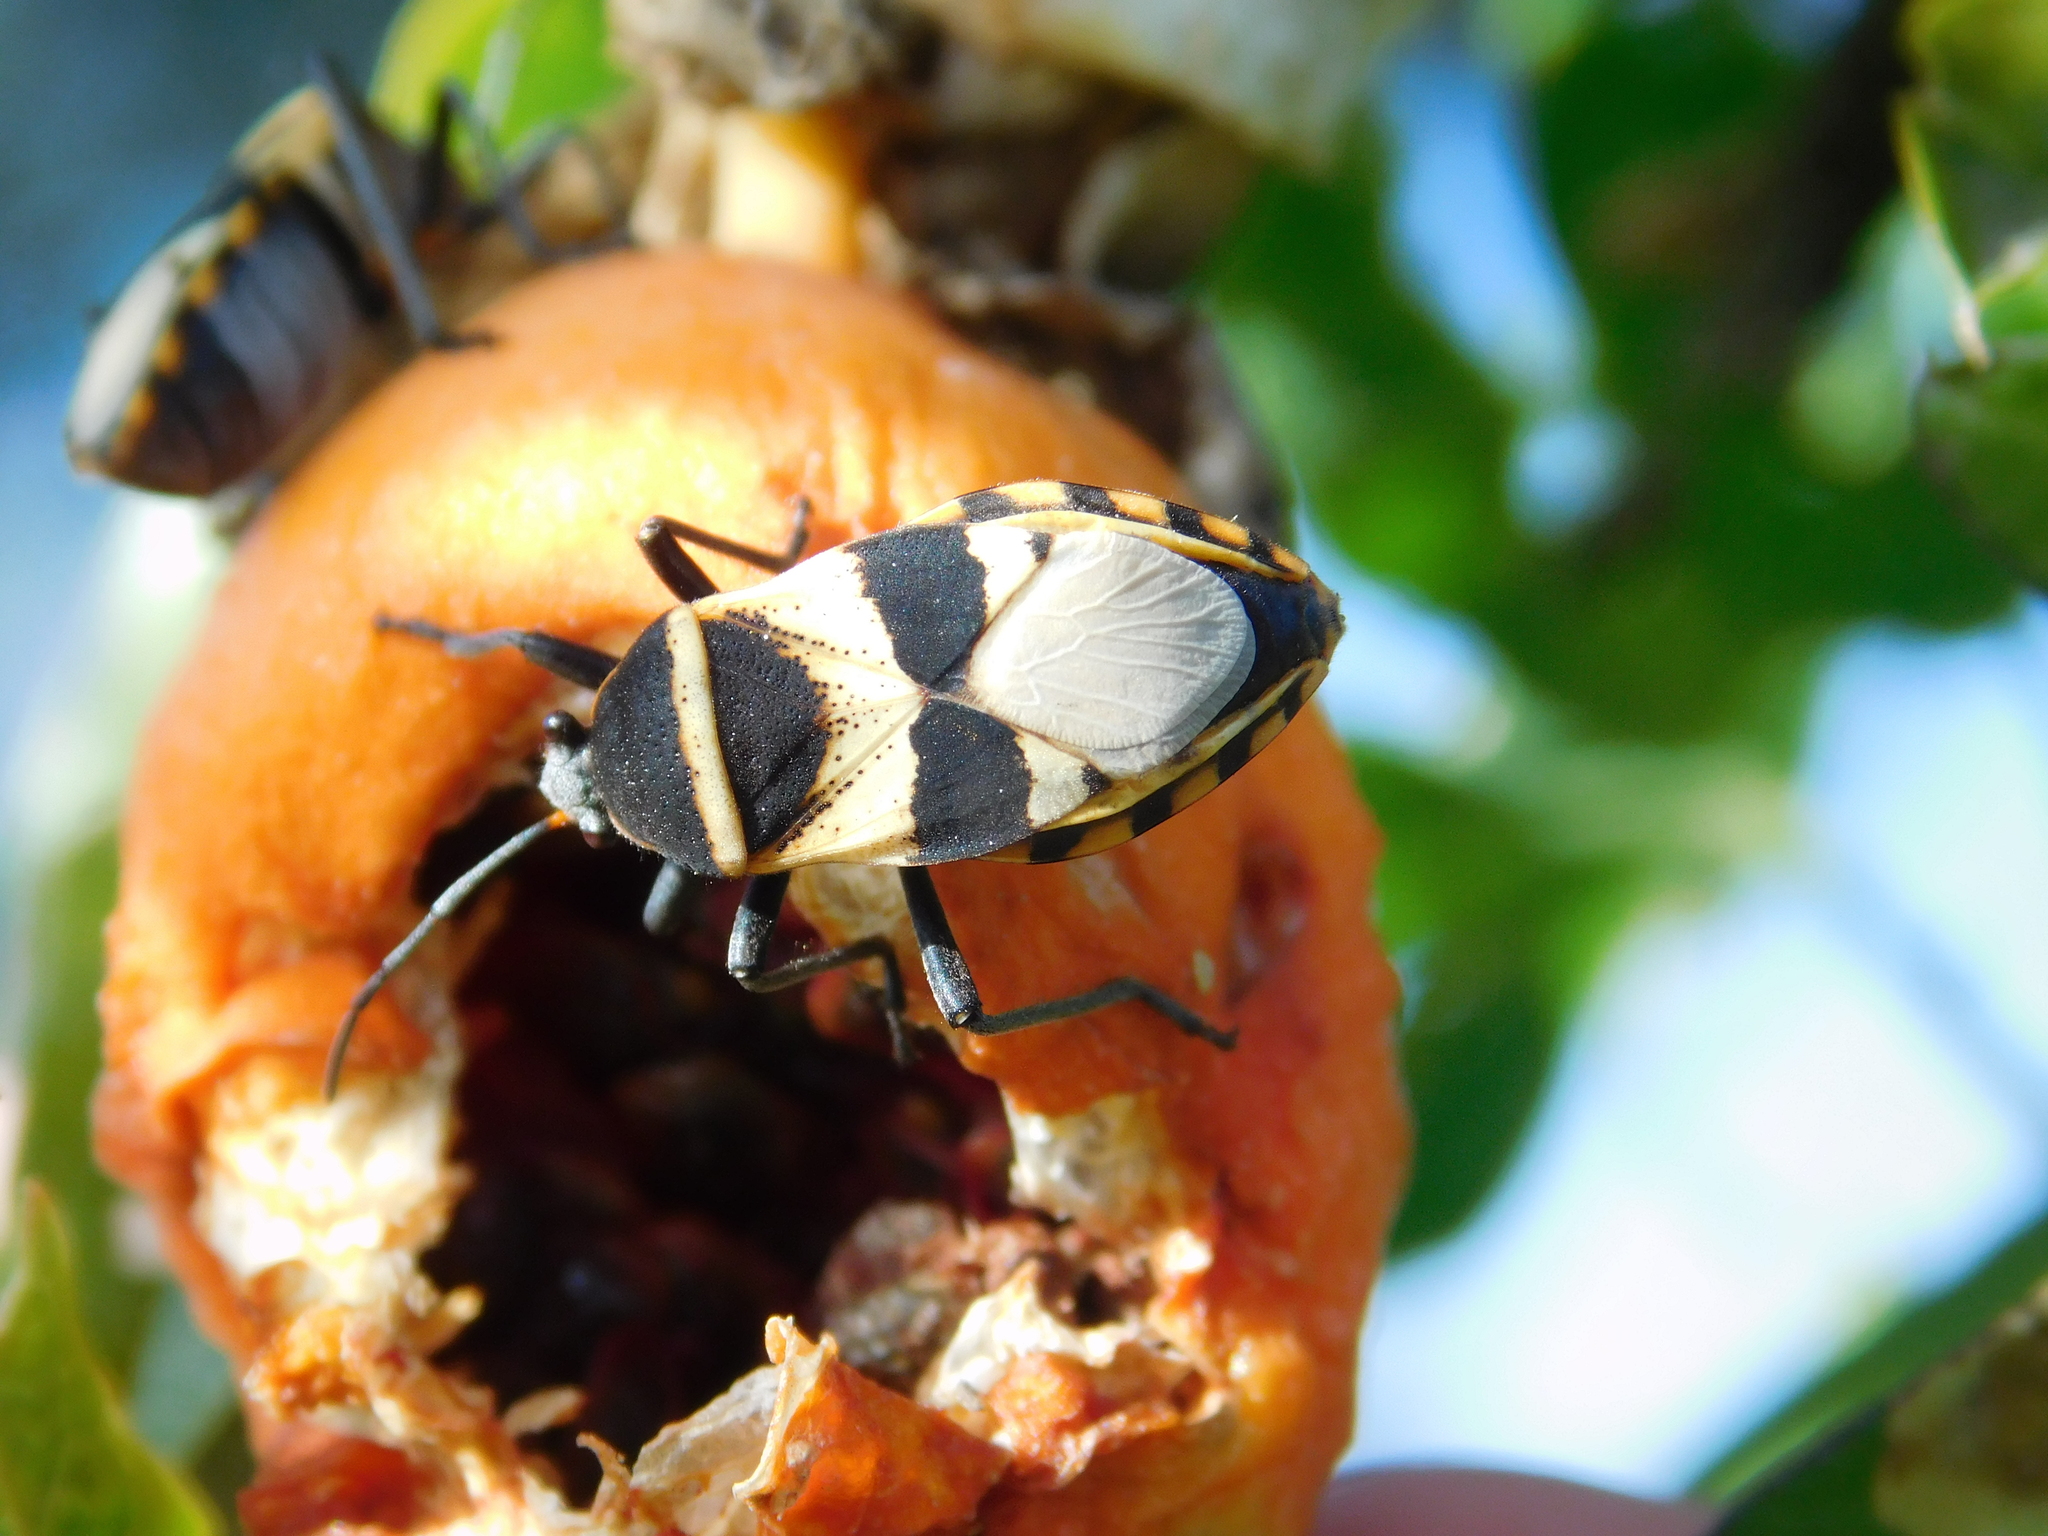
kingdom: Animalia
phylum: Arthropoda
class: Insecta
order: Hemiptera
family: Largidae
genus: Largus
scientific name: Largus fasciatus
